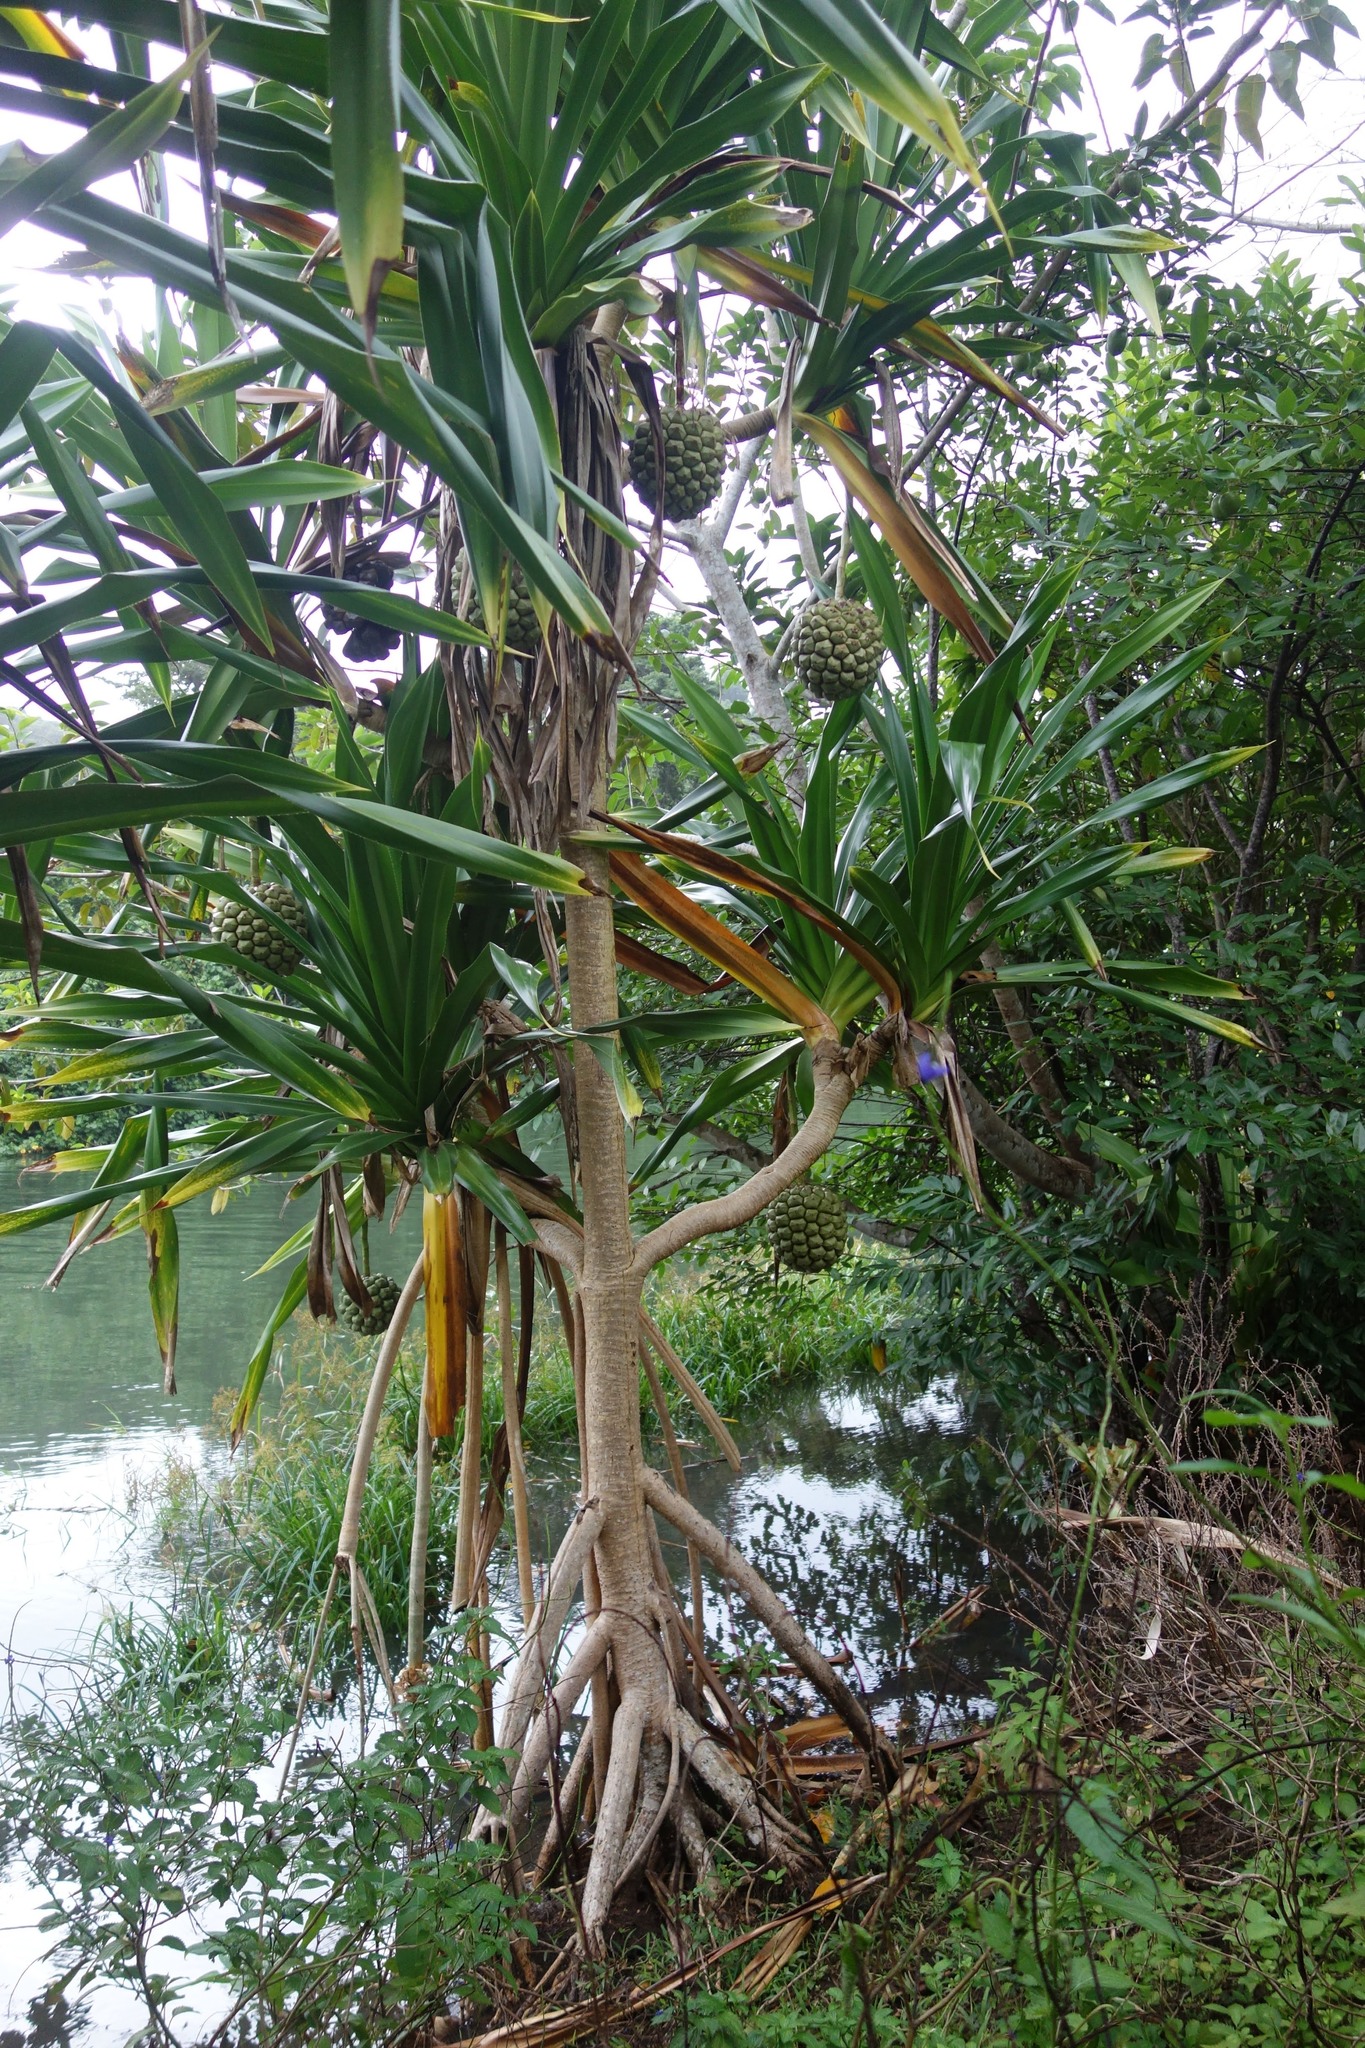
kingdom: Plantae
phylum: Tracheophyta
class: Liliopsida
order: Pandanales
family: Pandanaceae
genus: Pandanus
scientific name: Pandanus dubius
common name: Knob-fruited screwpine
